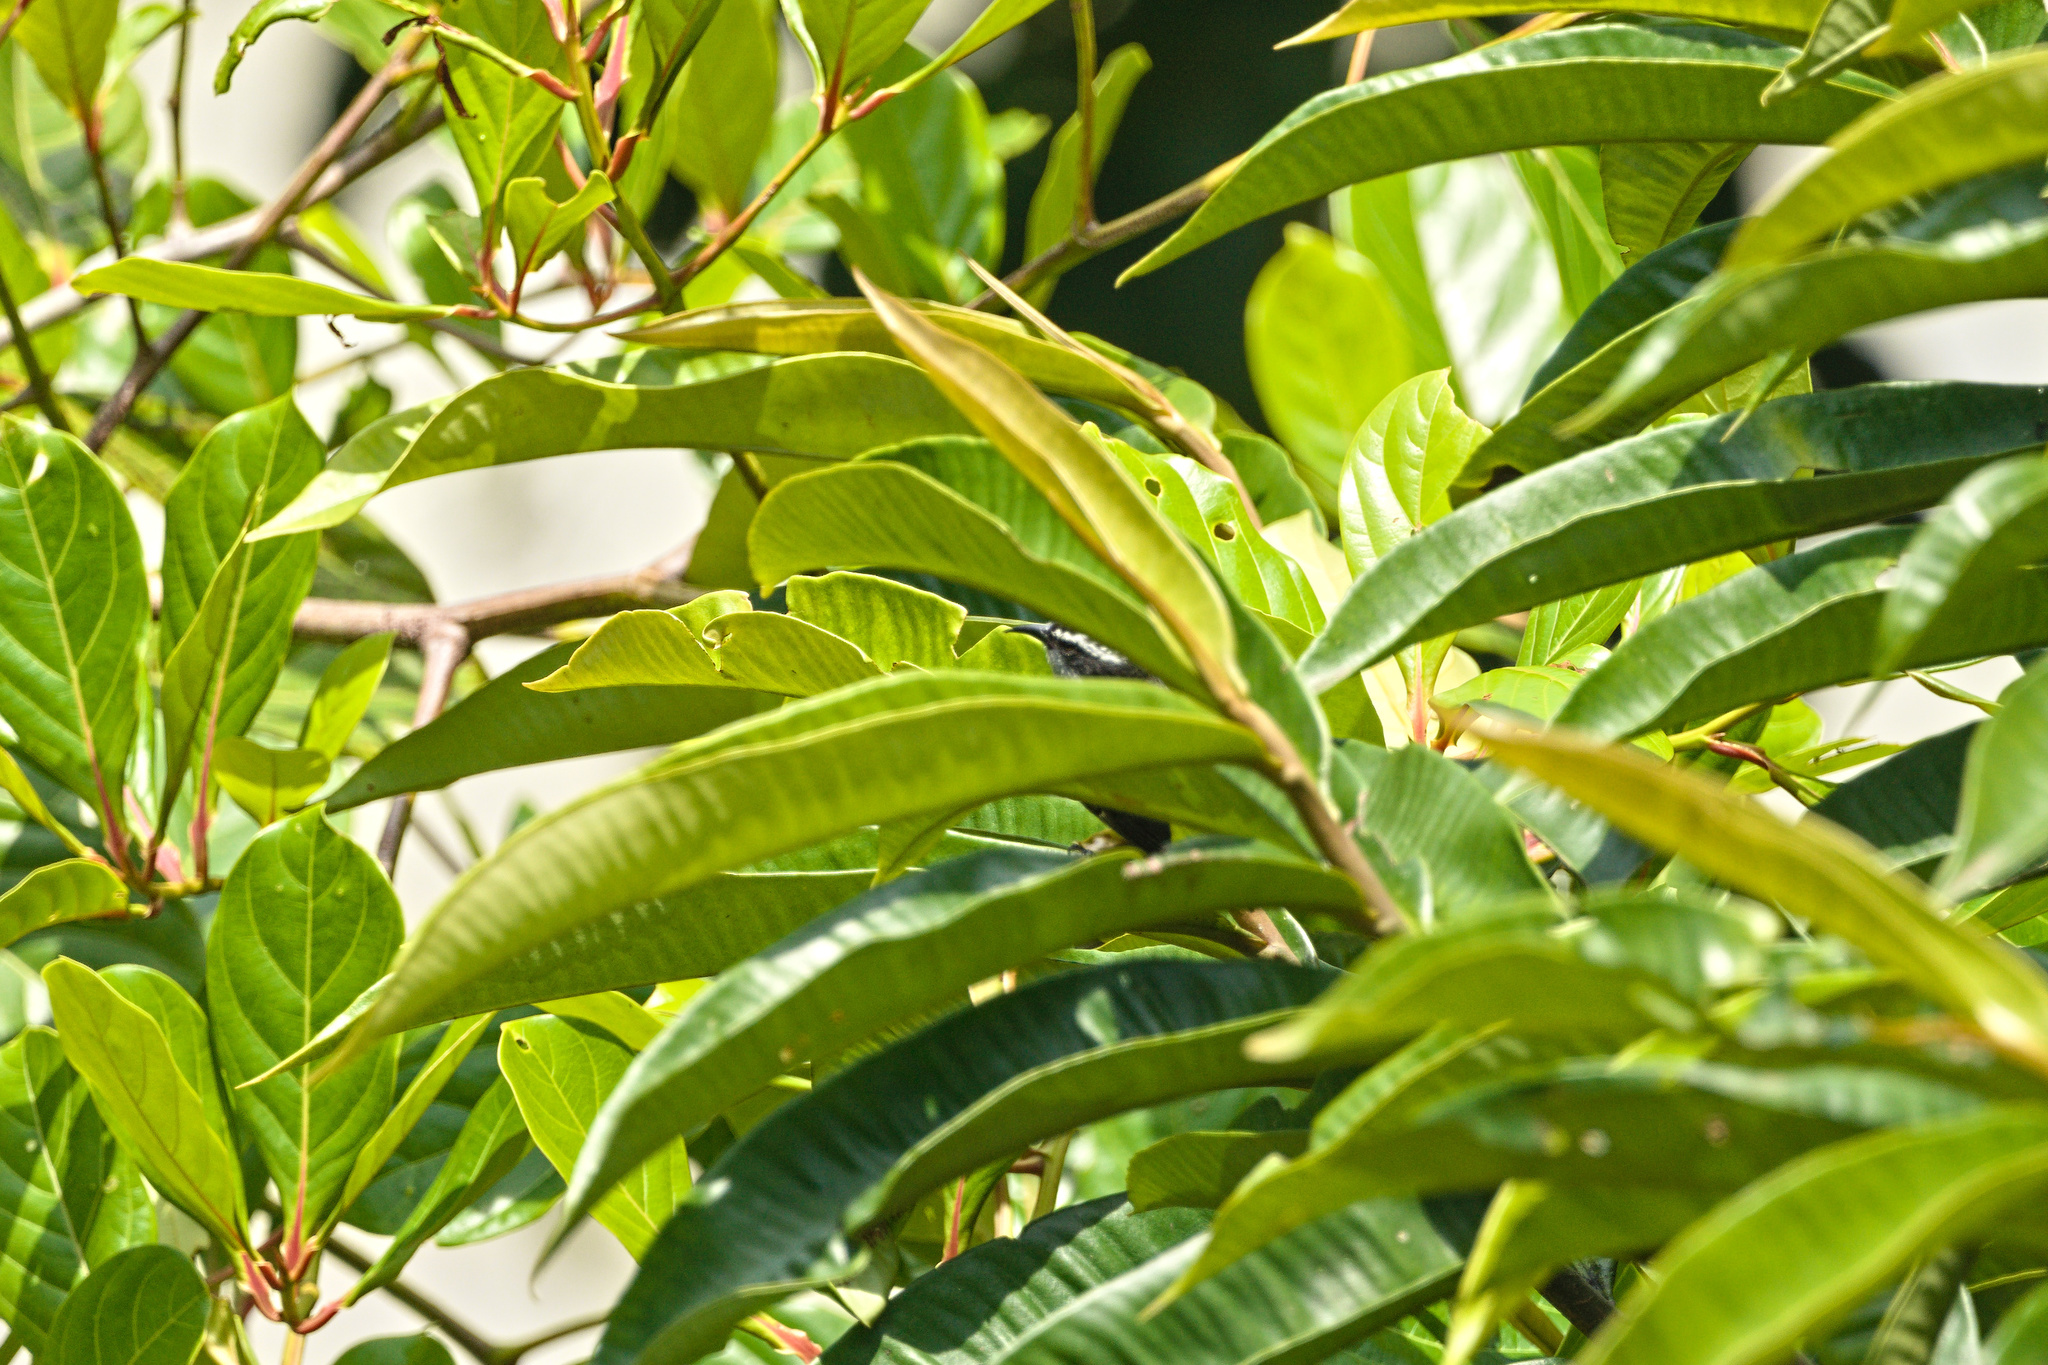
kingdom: Animalia
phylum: Chordata
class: Aves
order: Passeriformes
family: Thraupidae
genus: Coereba
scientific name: Coereba flaveola
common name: Bananaquit
